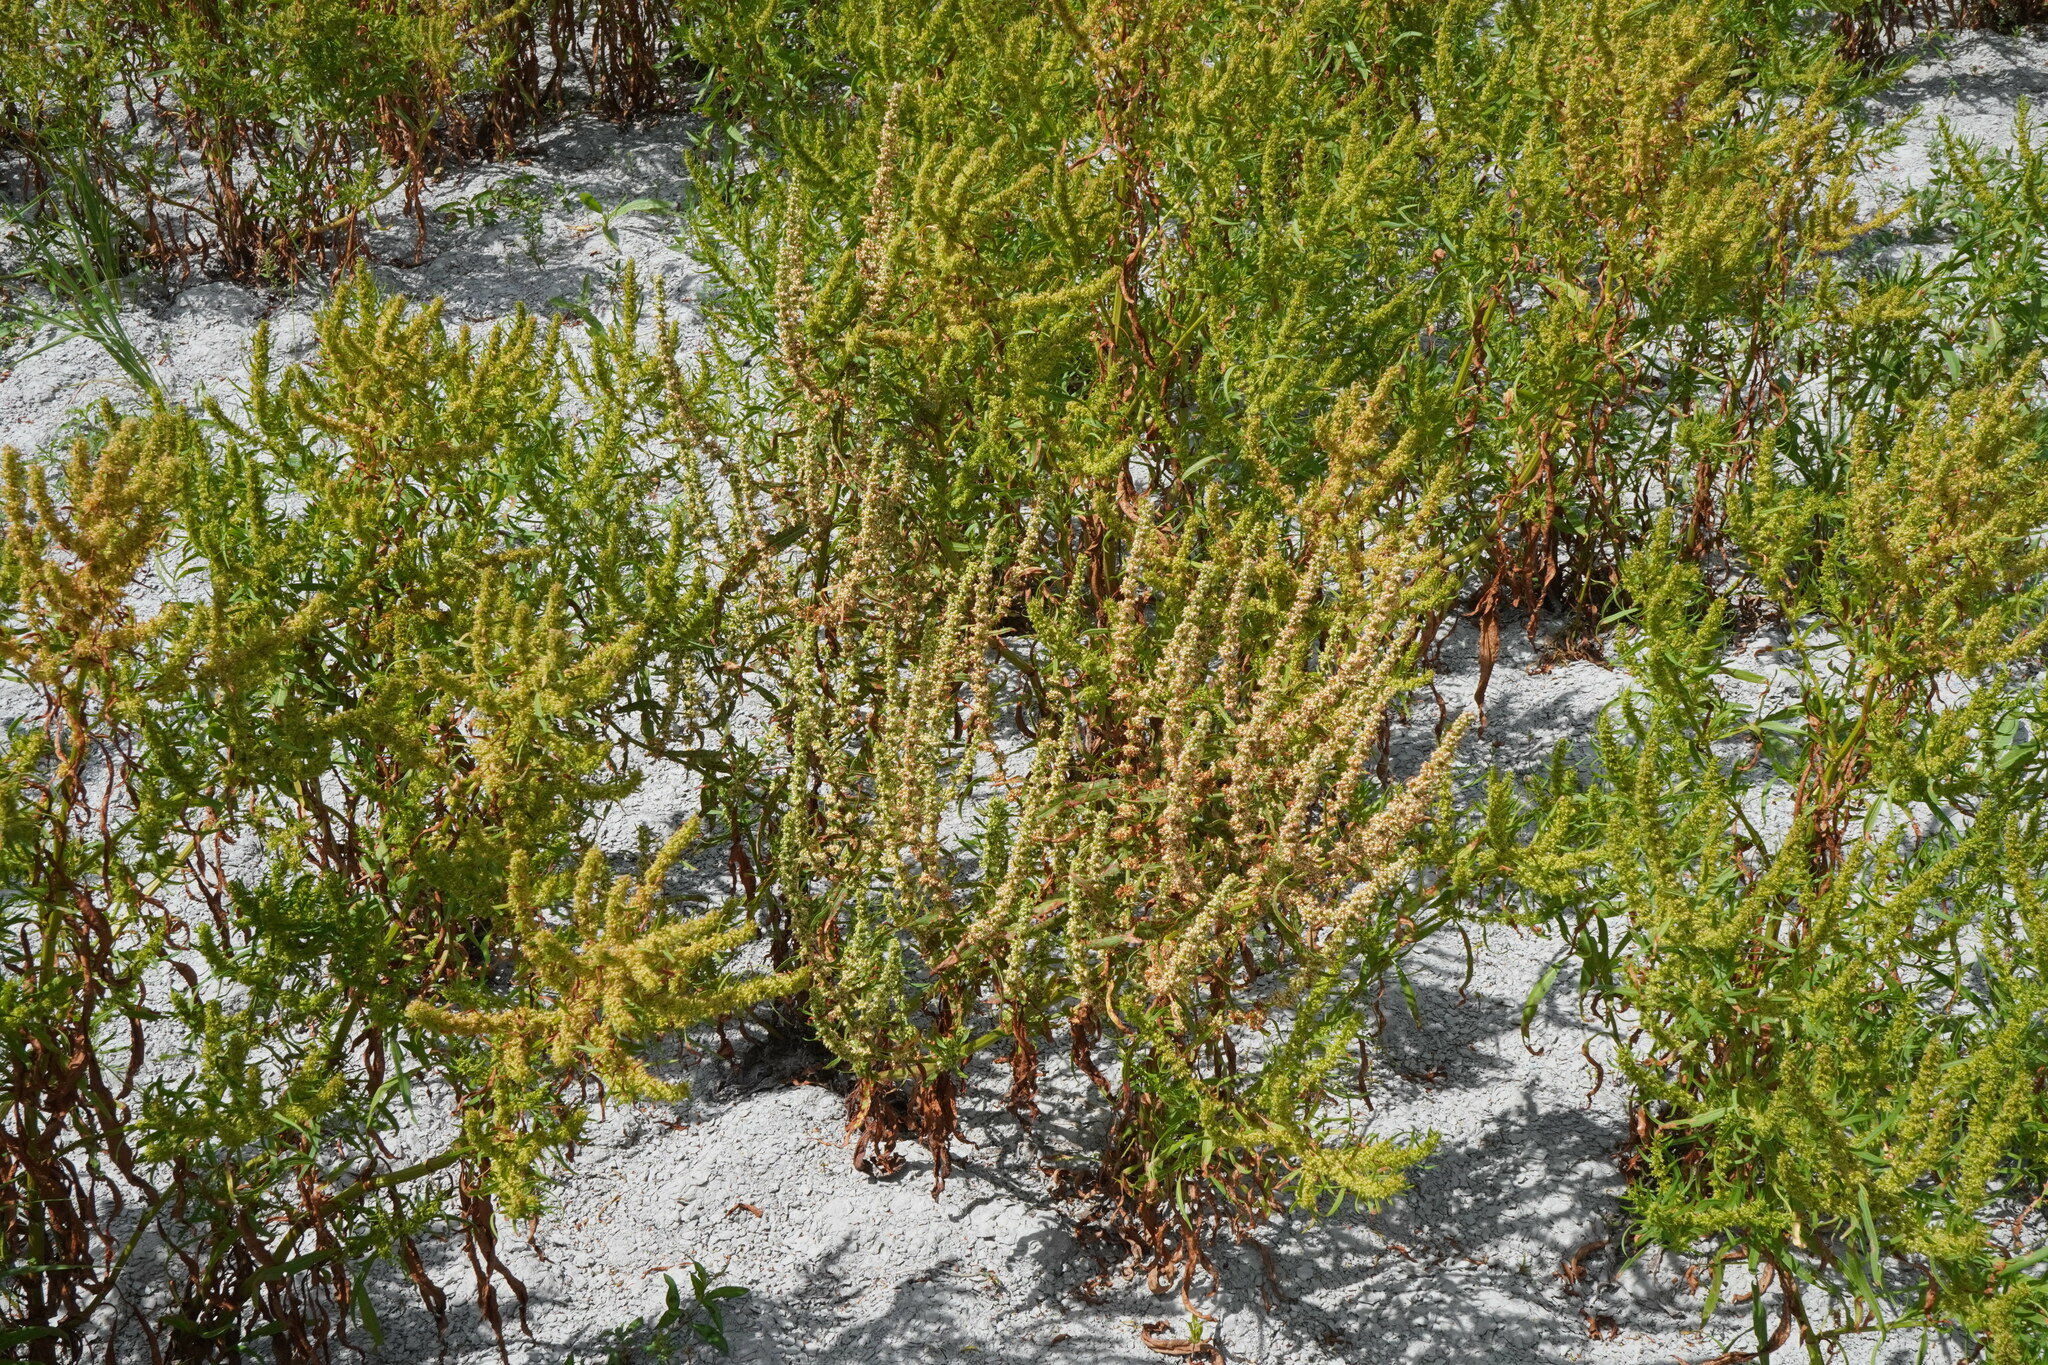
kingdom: Plantae
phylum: Tracheophyta
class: Magnoliopsida
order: Caryophyllales
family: Polygonaceae
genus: Rumex
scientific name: Rumex palustris
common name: Marsh dock
